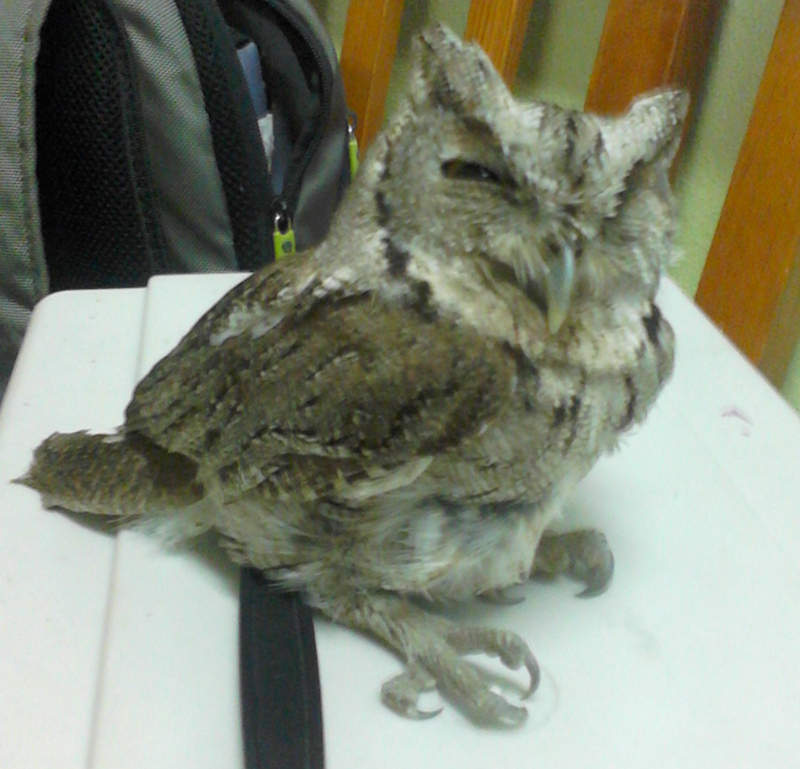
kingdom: Animalia
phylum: Chordata
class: Aves
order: Strigiformes
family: Strigidae
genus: Megascops
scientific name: Megascops cooperi
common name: Pacific screech-owl
